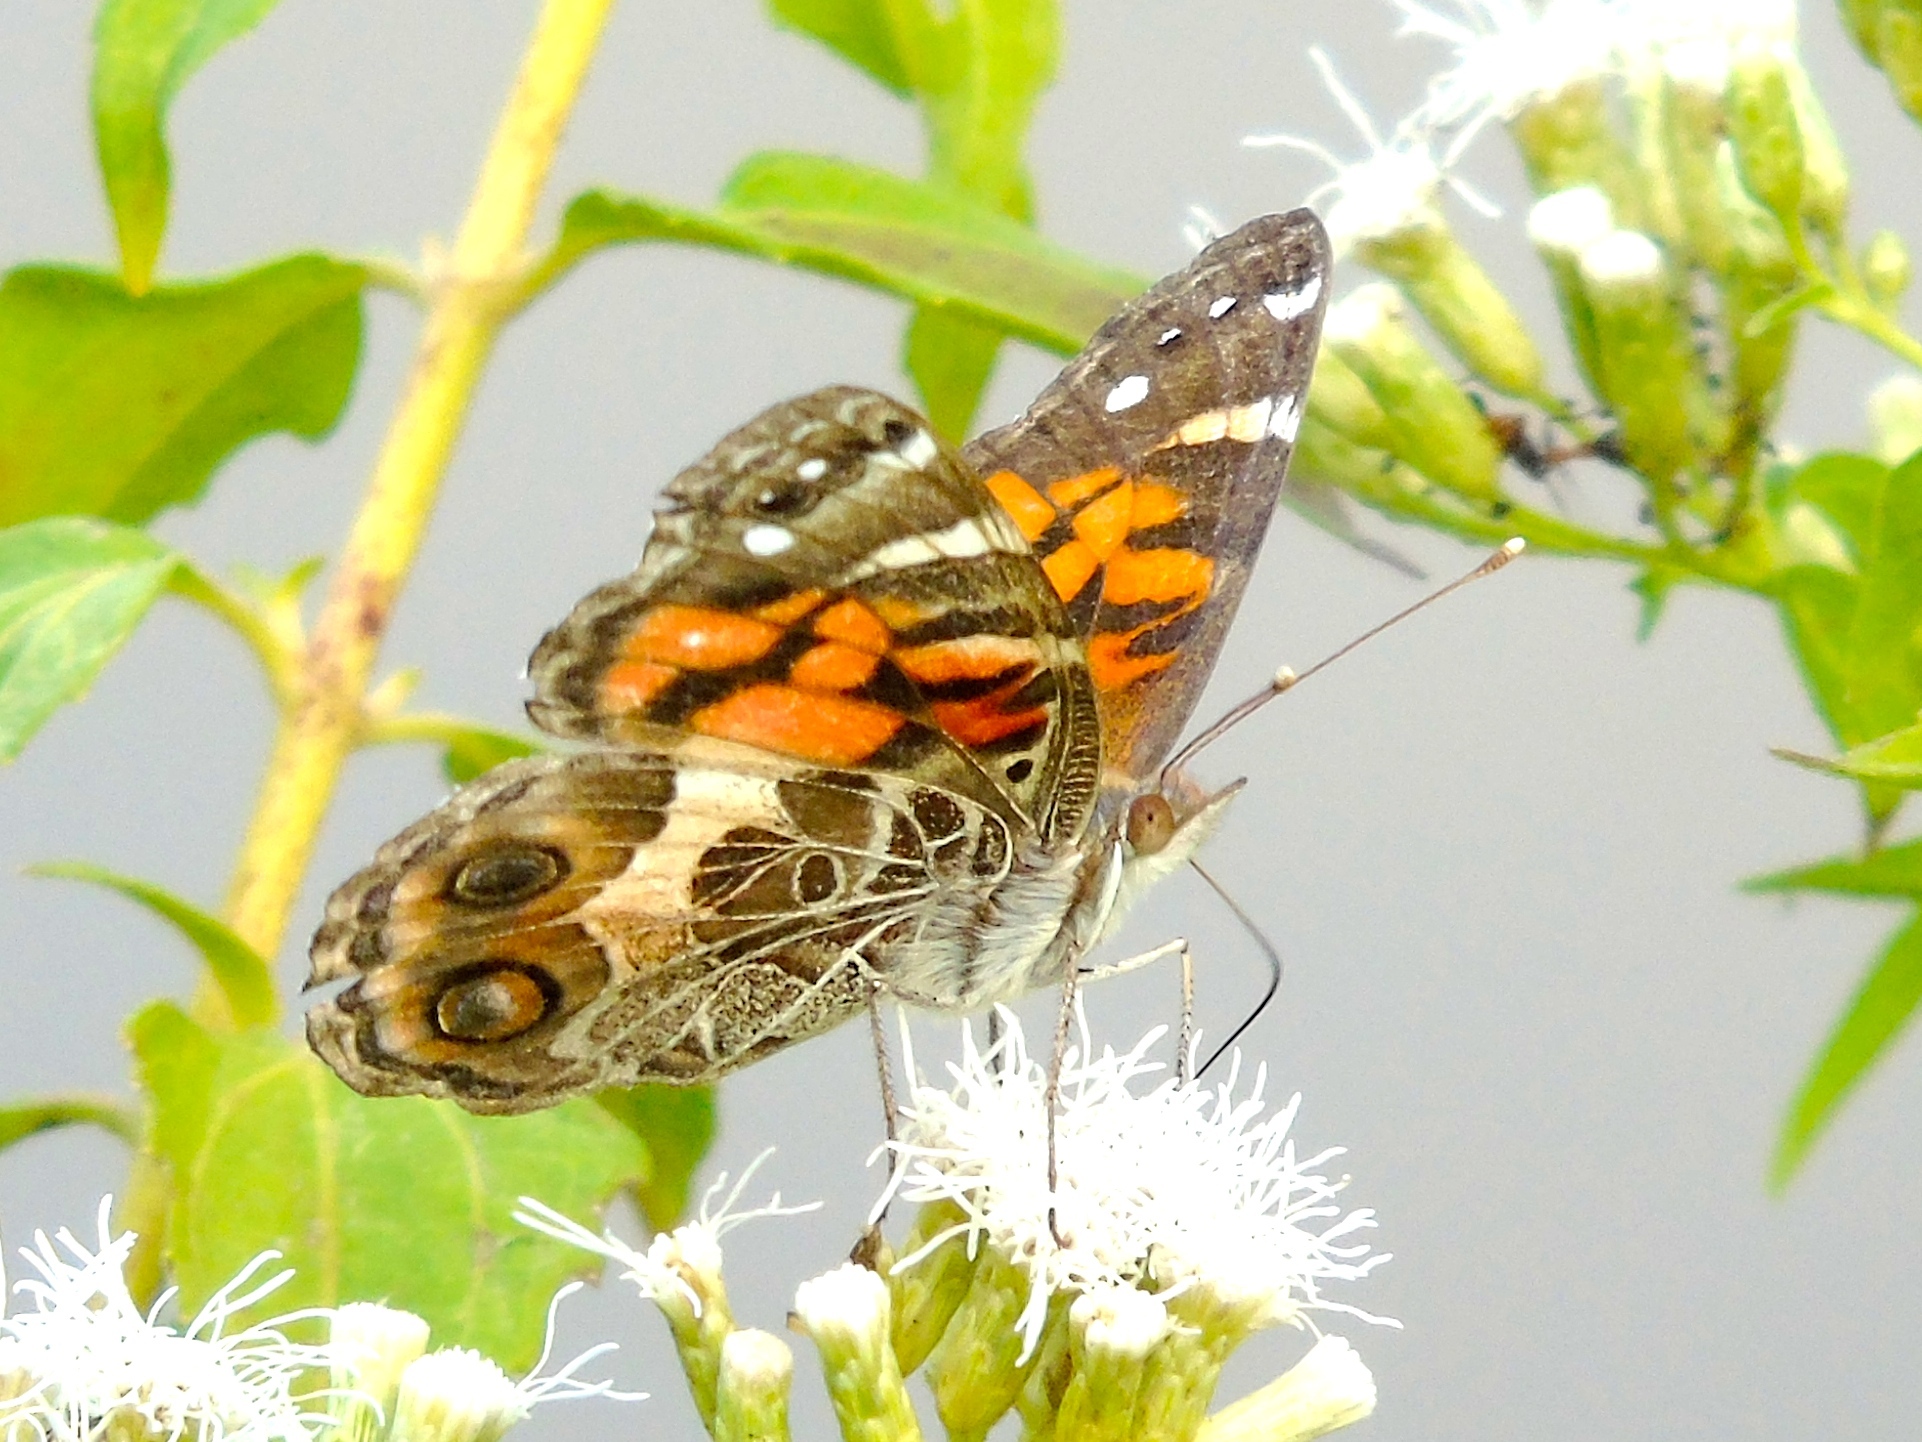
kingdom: Animalia
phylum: Arthropoda
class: Insecta
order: Lepidoptera
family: Nymphalidae
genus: Vanessa
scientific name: Vanessa virginiensis
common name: American lady
